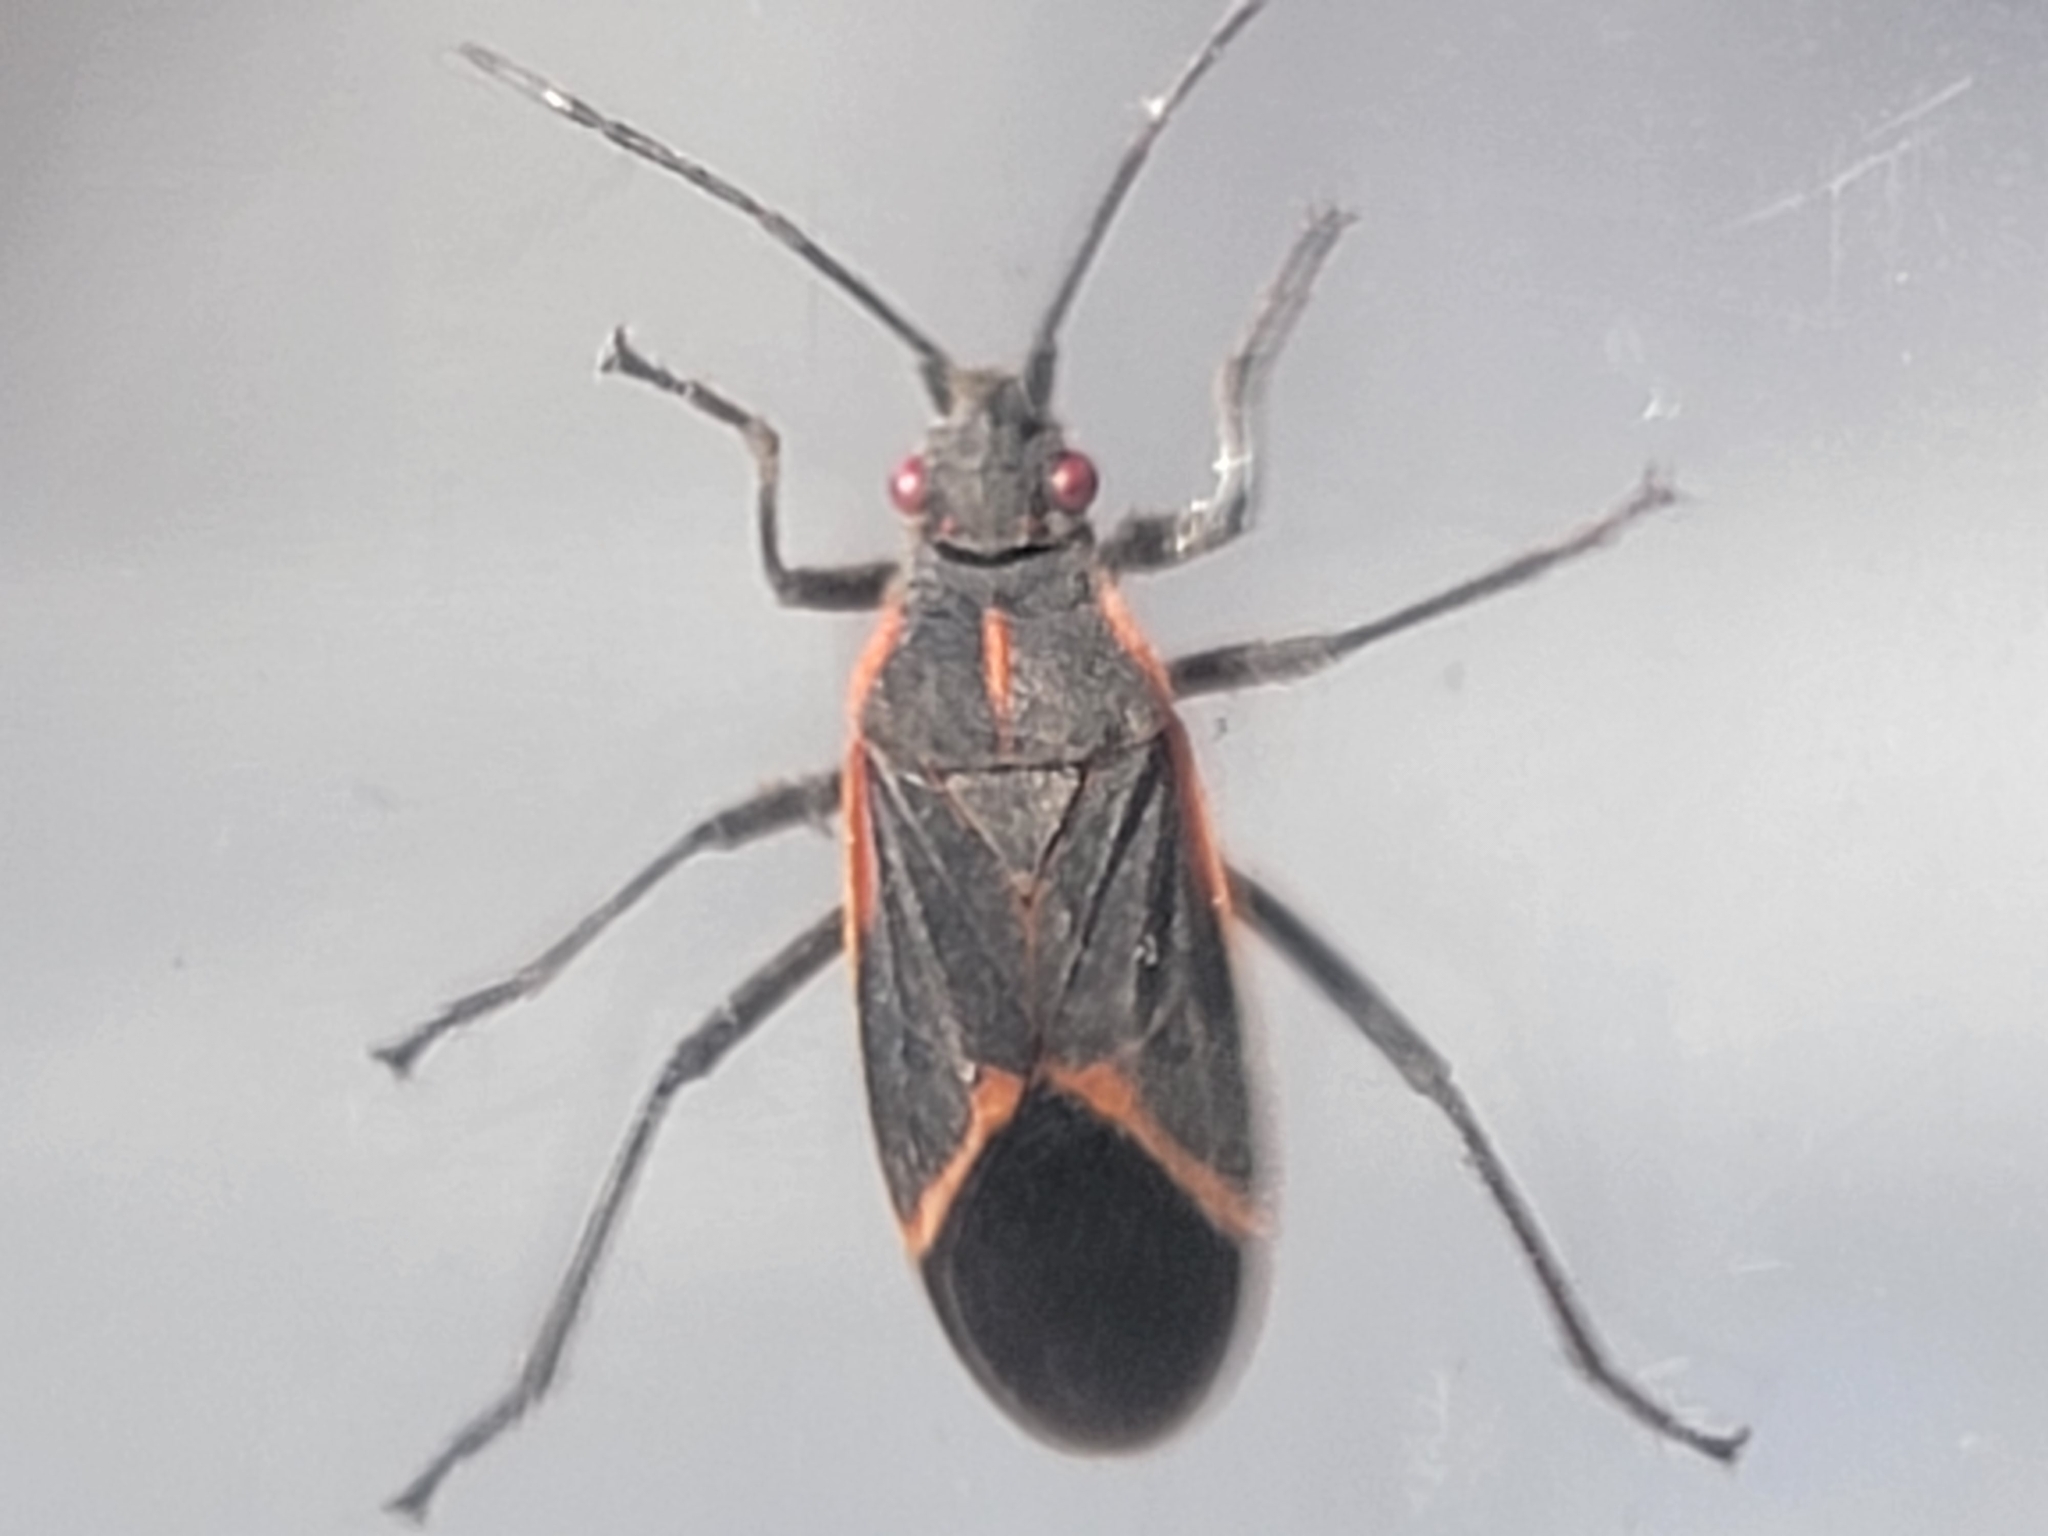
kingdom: Animalia
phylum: Arthropoda
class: Insecta
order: Hemiptera
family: Rhopalidae
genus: Boisea
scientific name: Boisea trivittata
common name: Boxelder bug
